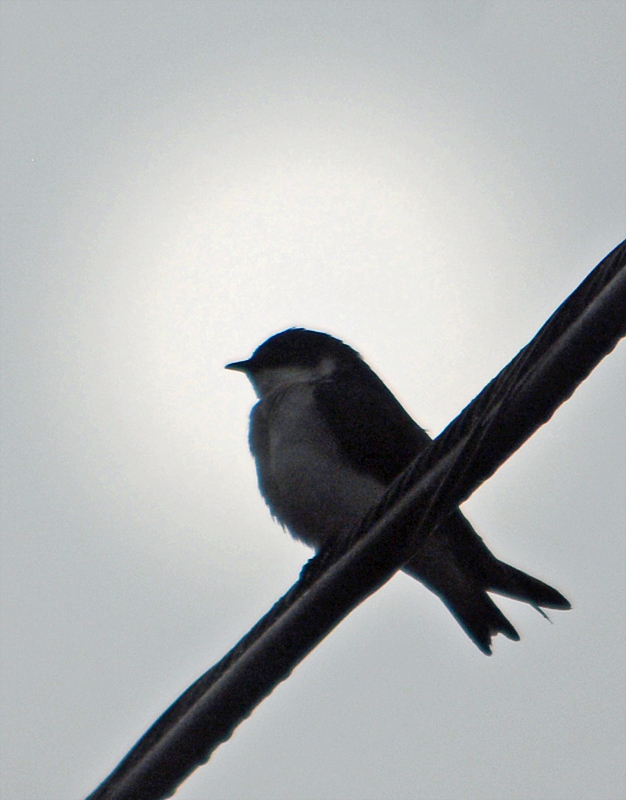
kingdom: Animalia
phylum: Chordata
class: Aves
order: Passeriformes
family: Hirundinidae
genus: Tachycineta
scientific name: Tachycineta bicolor
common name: Tree swallow
